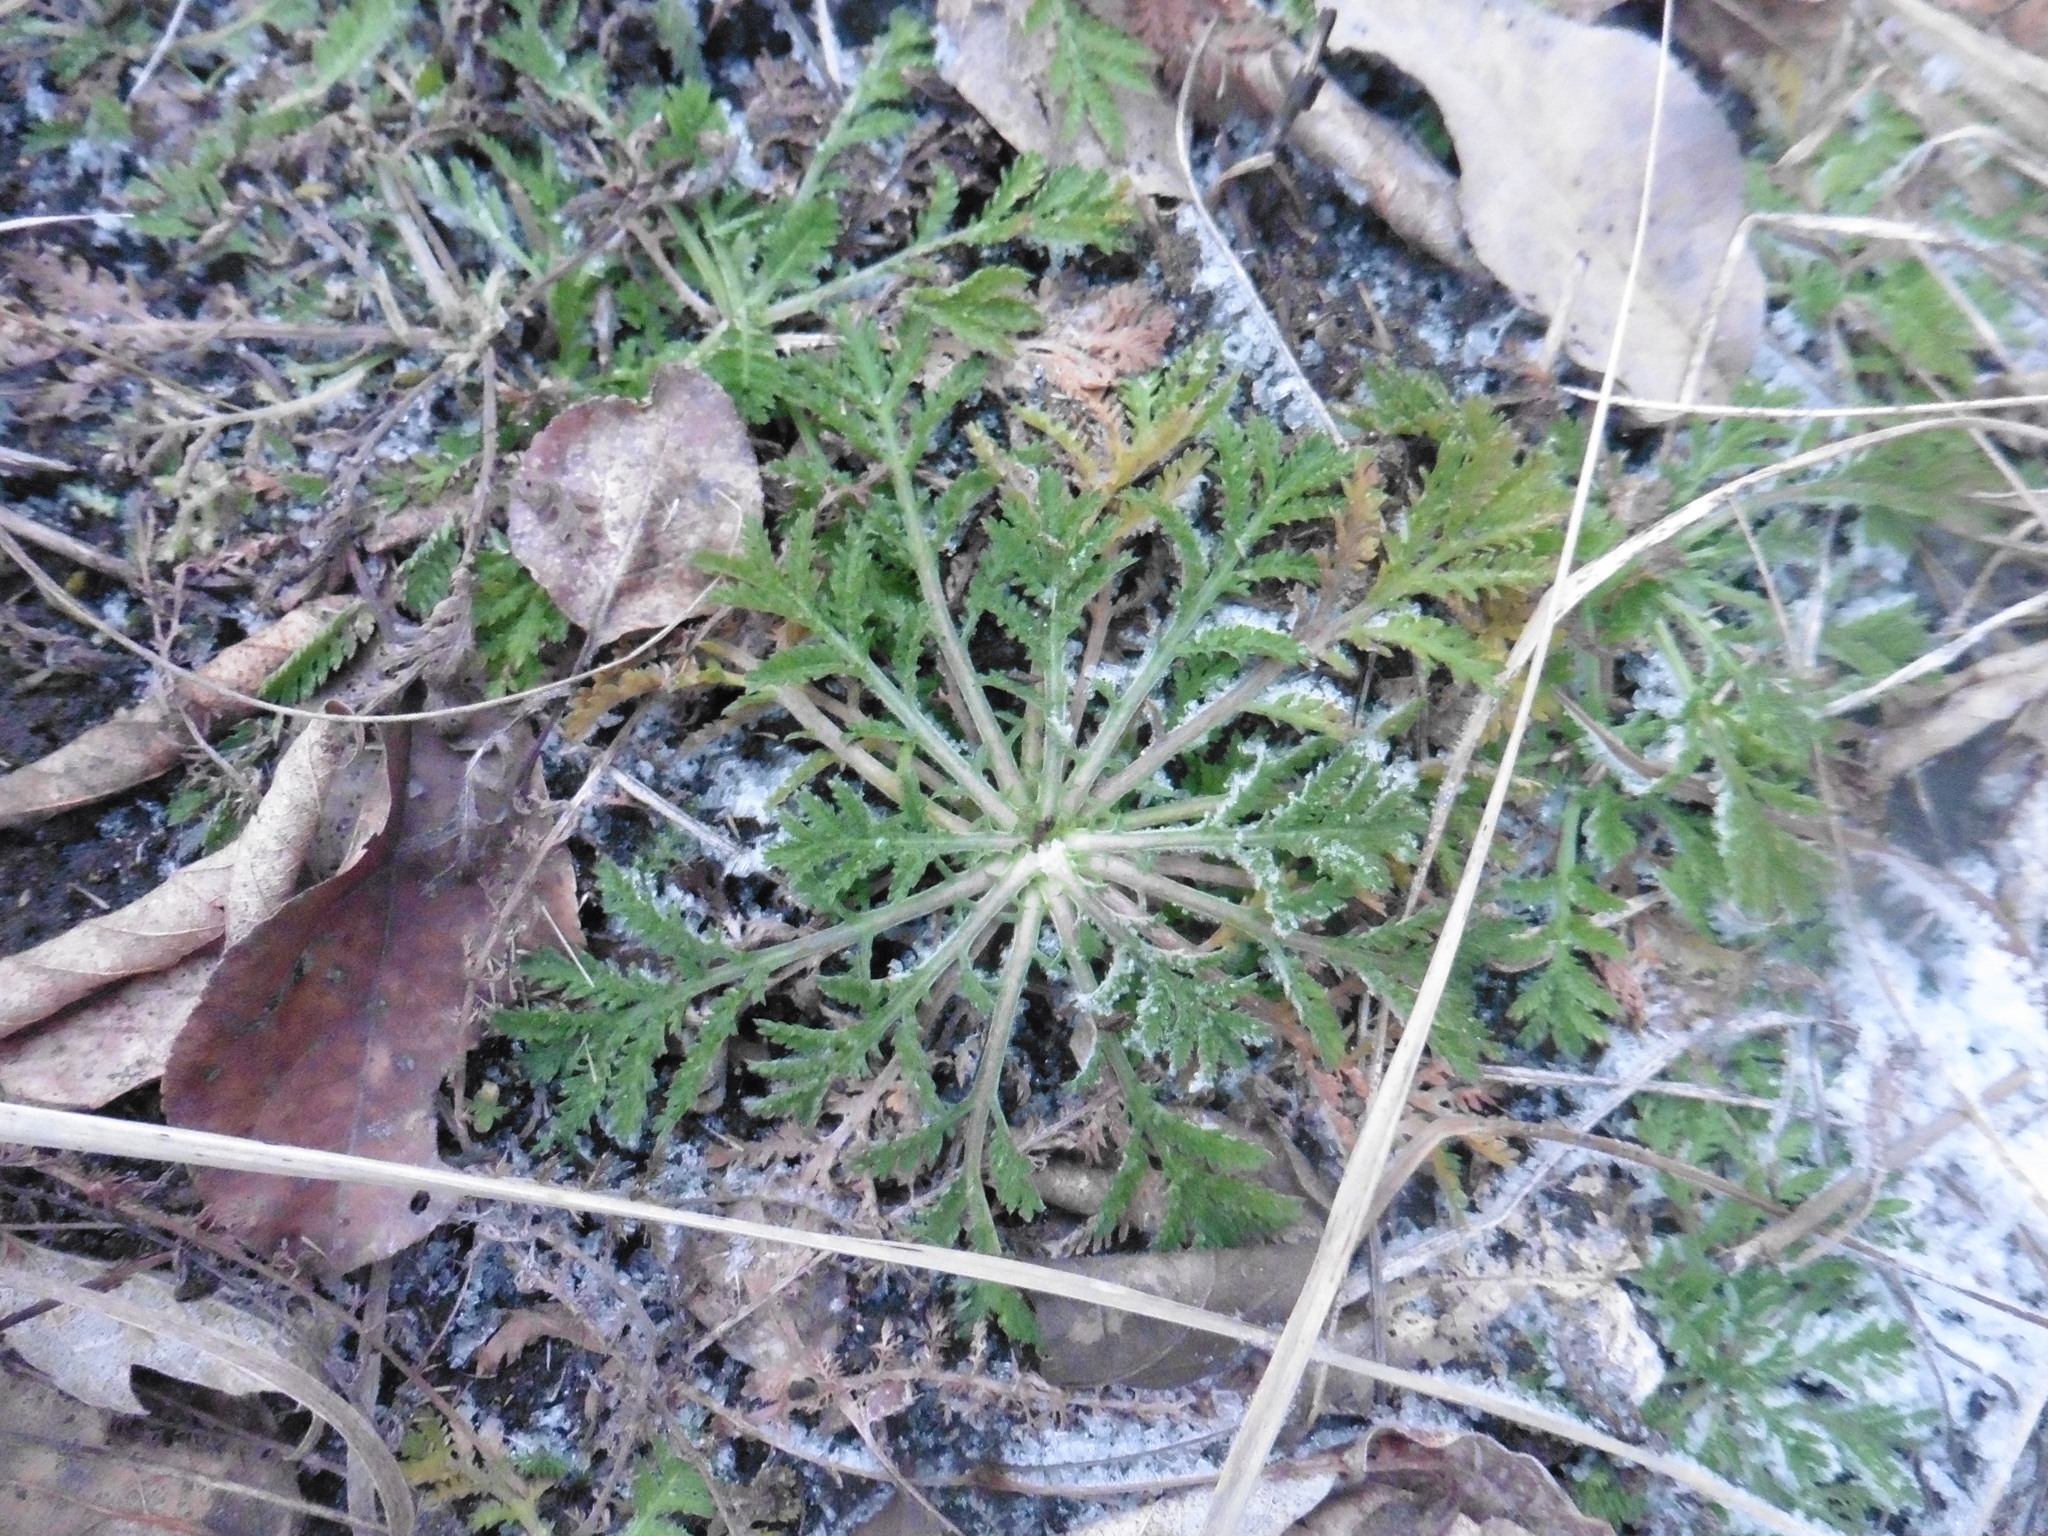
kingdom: Plantae
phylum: Tracheophyta
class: Magnoliopsida
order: Asterales
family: Asteraceae
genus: Cota
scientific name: Cota tinctoria
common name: Golden chamomile
